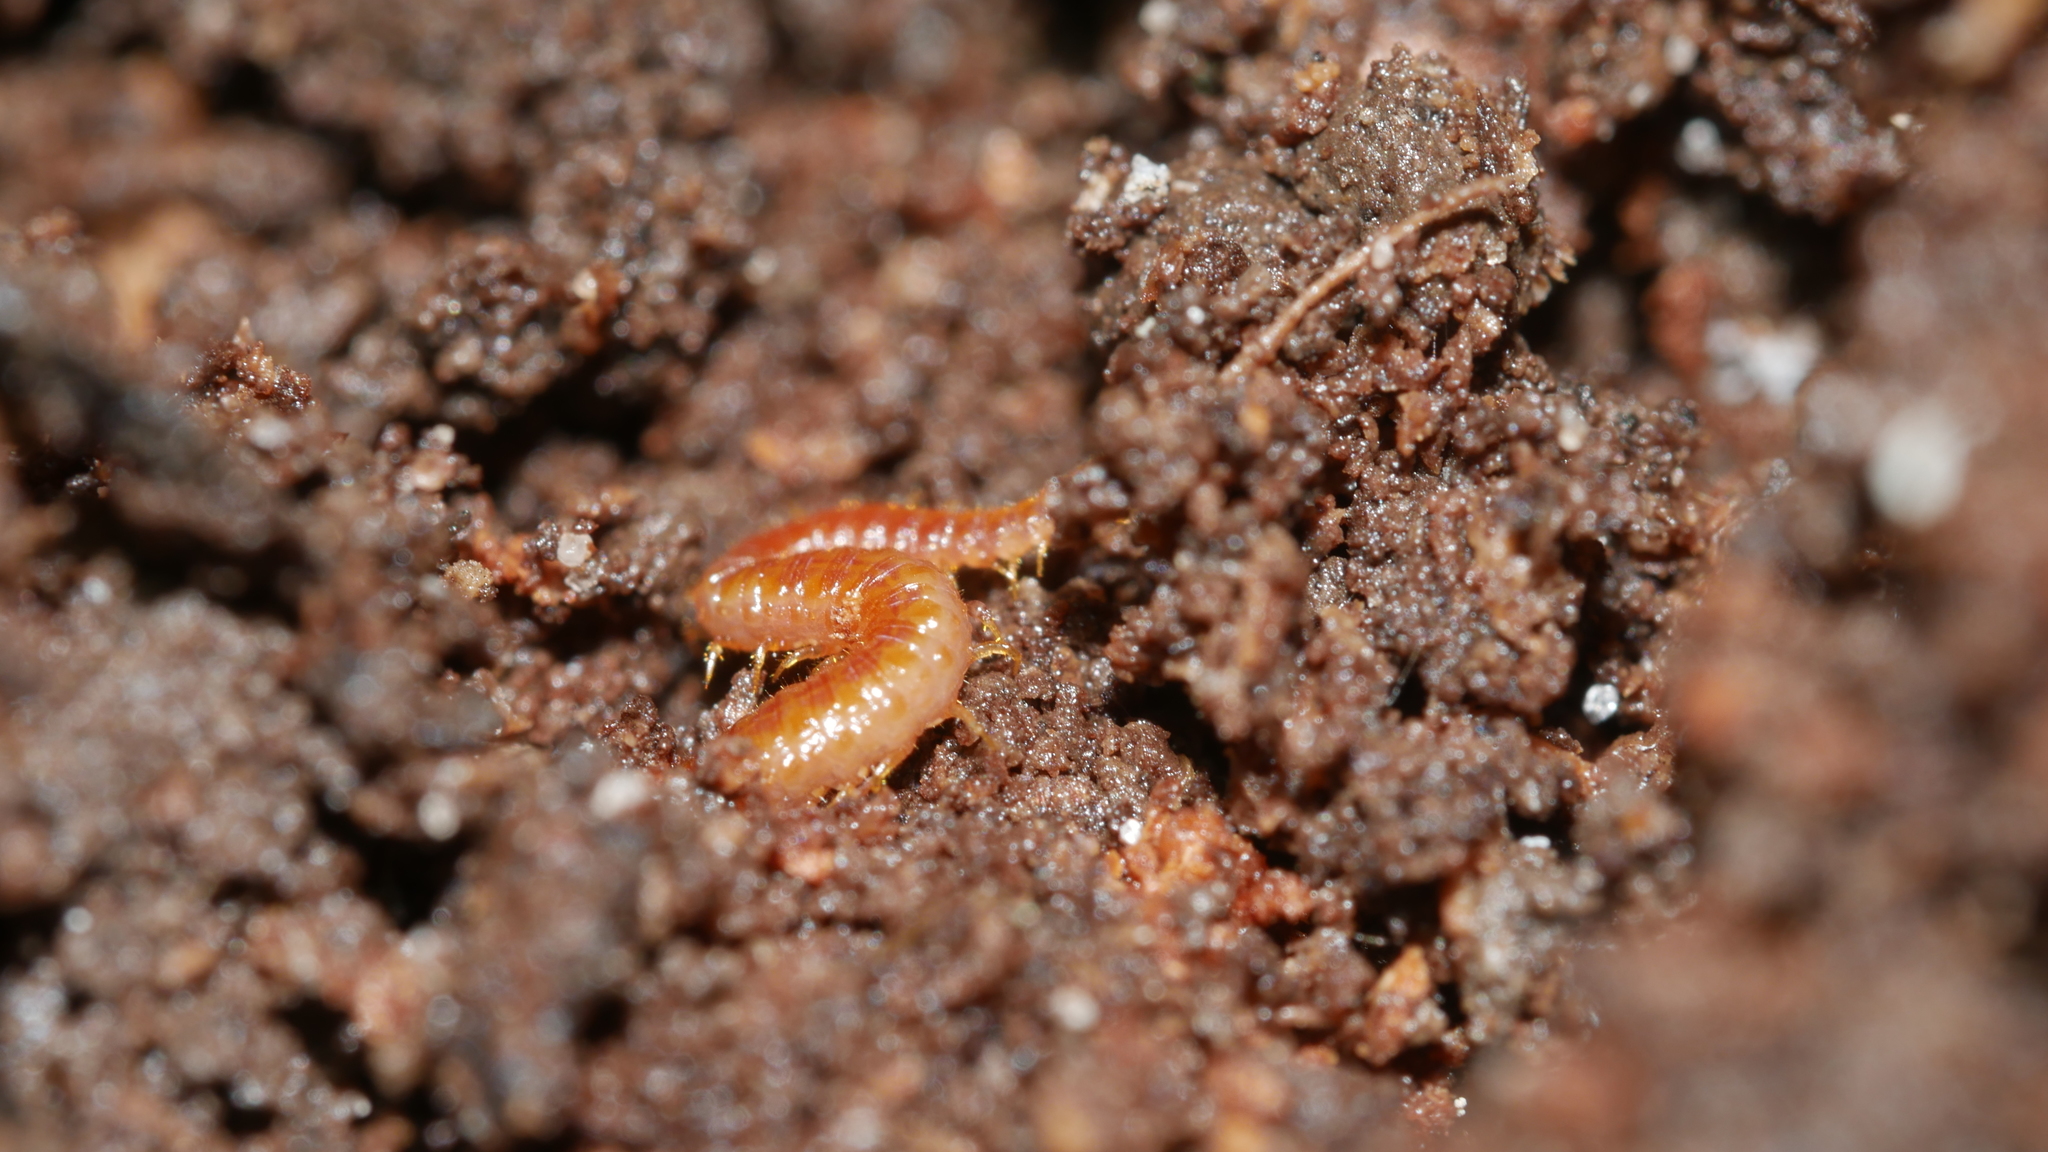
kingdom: Animalia
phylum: Arthropoda
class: Chilopoda
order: Geophilomorpha
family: Linotaeniidae
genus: Strigamia
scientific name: Strigamia branneri
